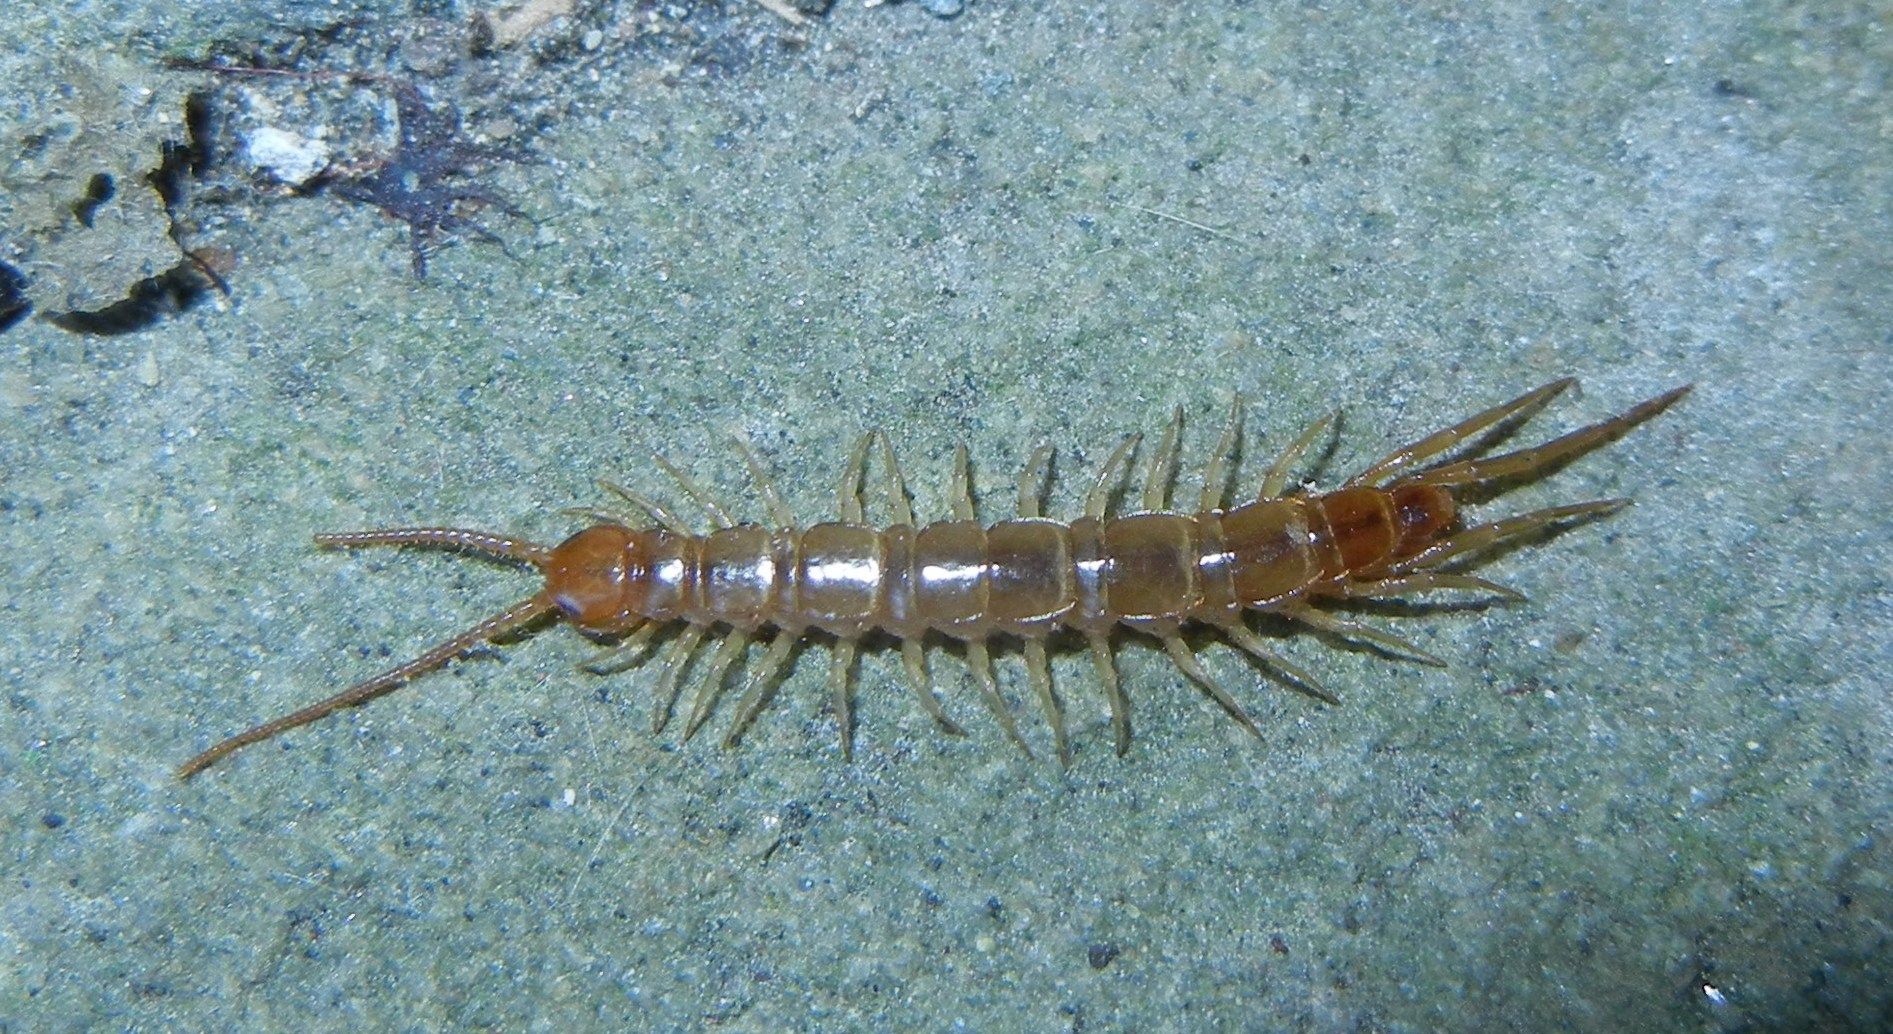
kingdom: Animalia
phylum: Arthropoda
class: Chilopoda
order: Lithobiomorpha
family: Lithobiidae
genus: Lithobius
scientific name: Lithobius melanops
